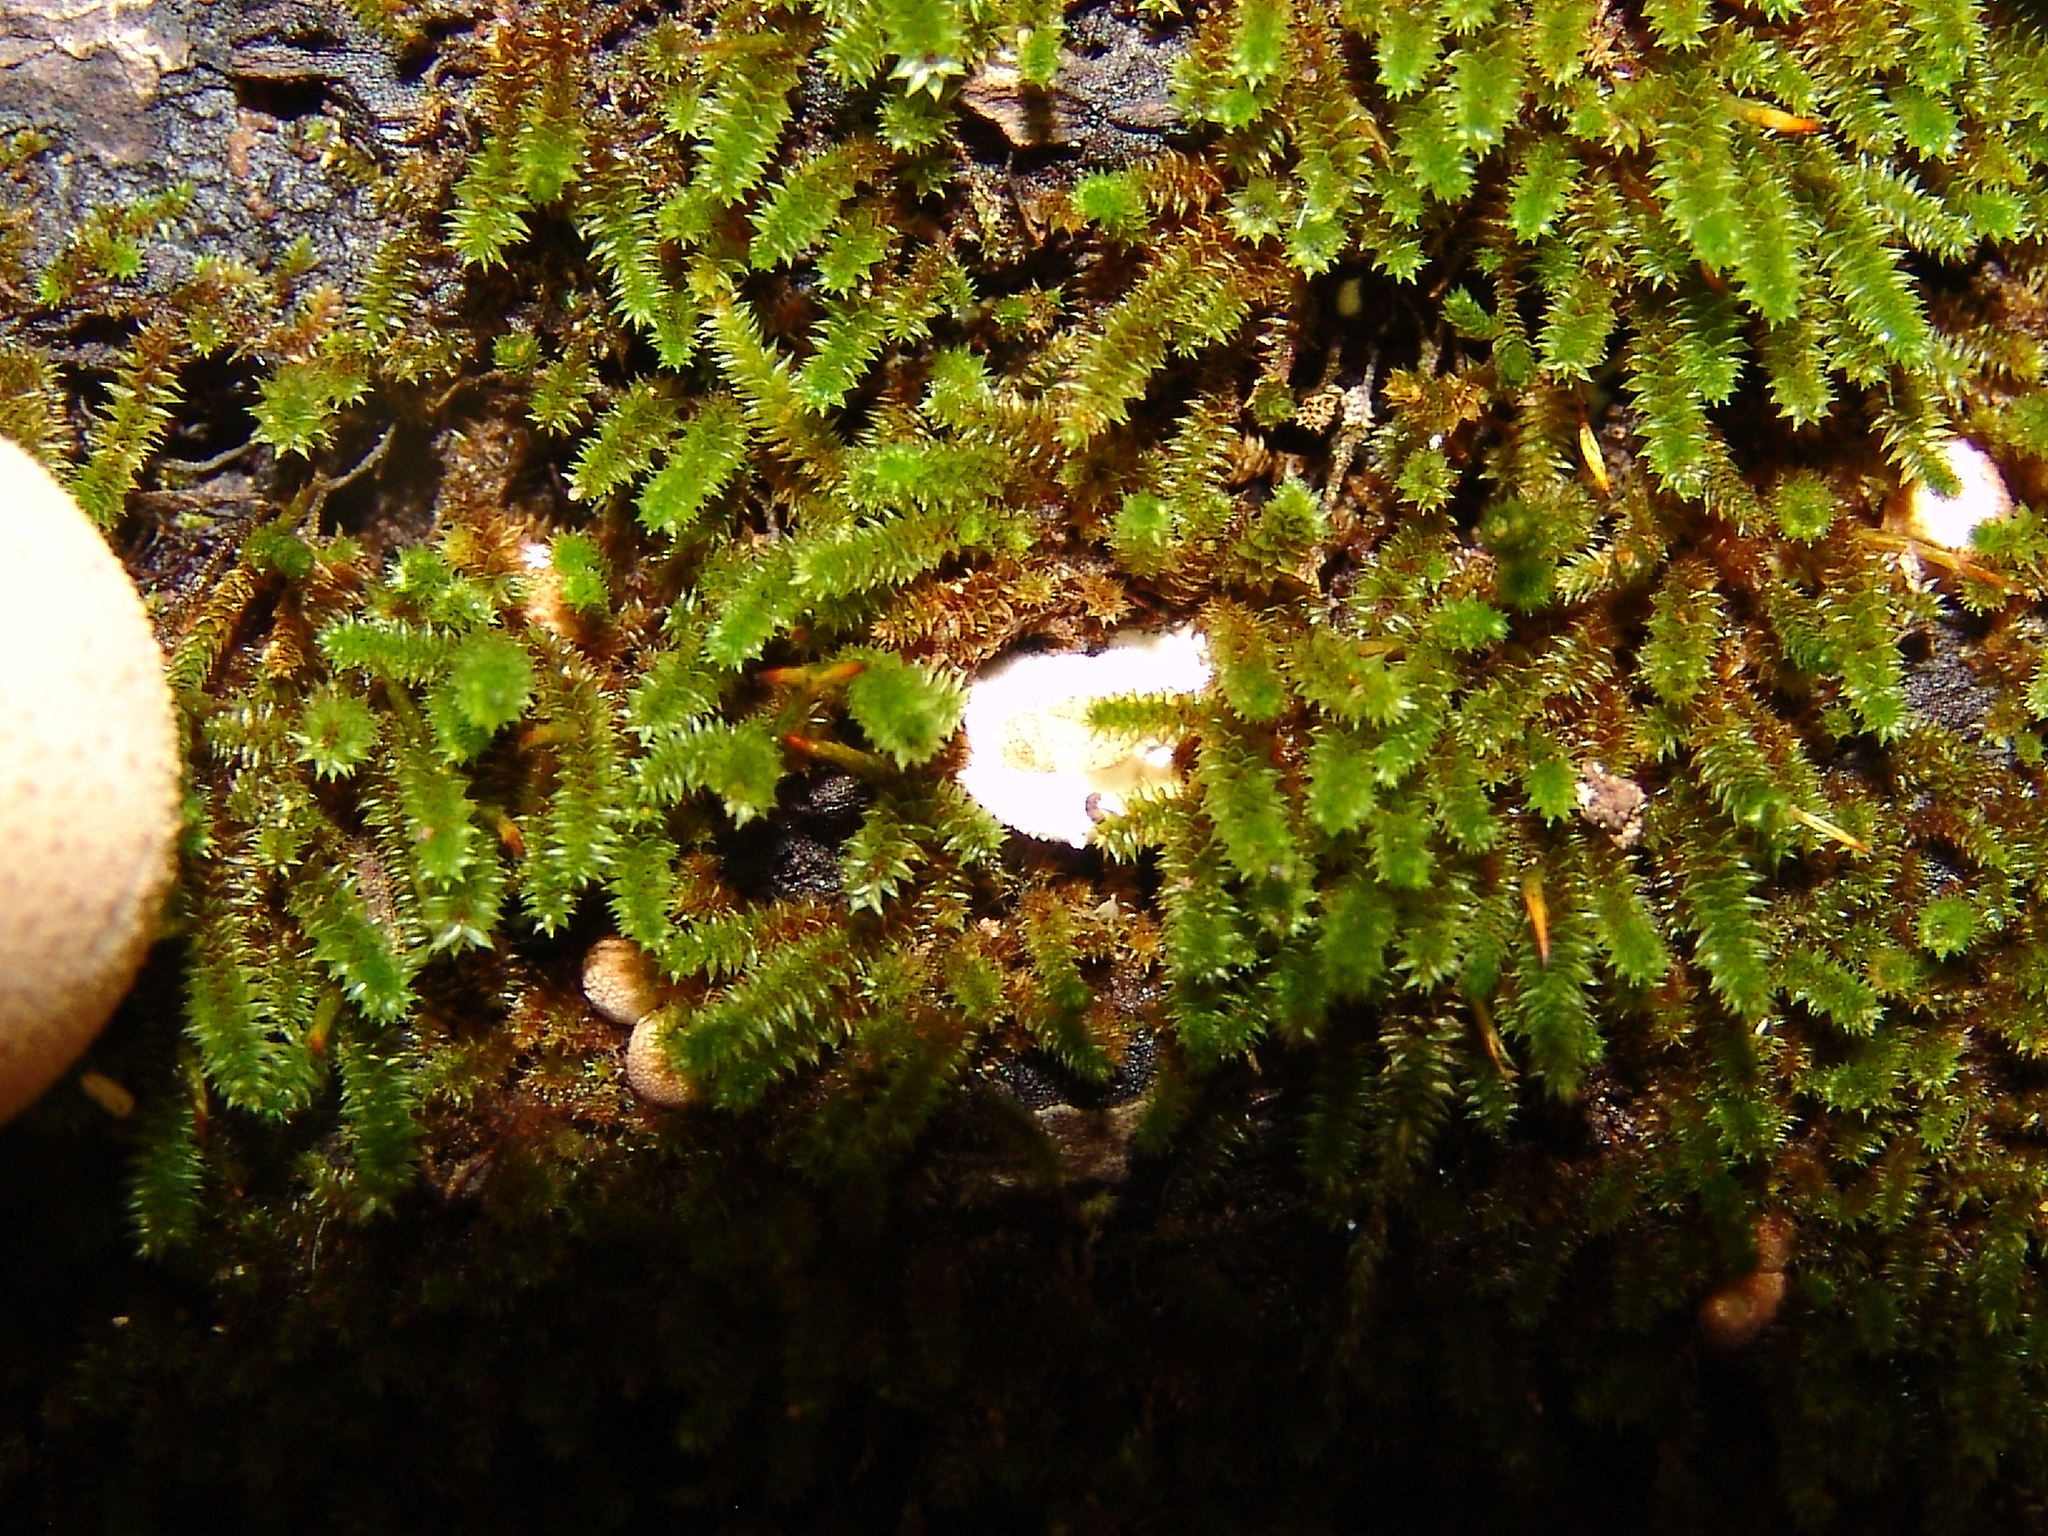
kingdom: Plantae
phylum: Bryophyta
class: Bryopsida
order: Hypnales
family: Leucodontaceae
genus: Leucodon
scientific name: Leucodon julaceus
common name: Smooth hook moss
